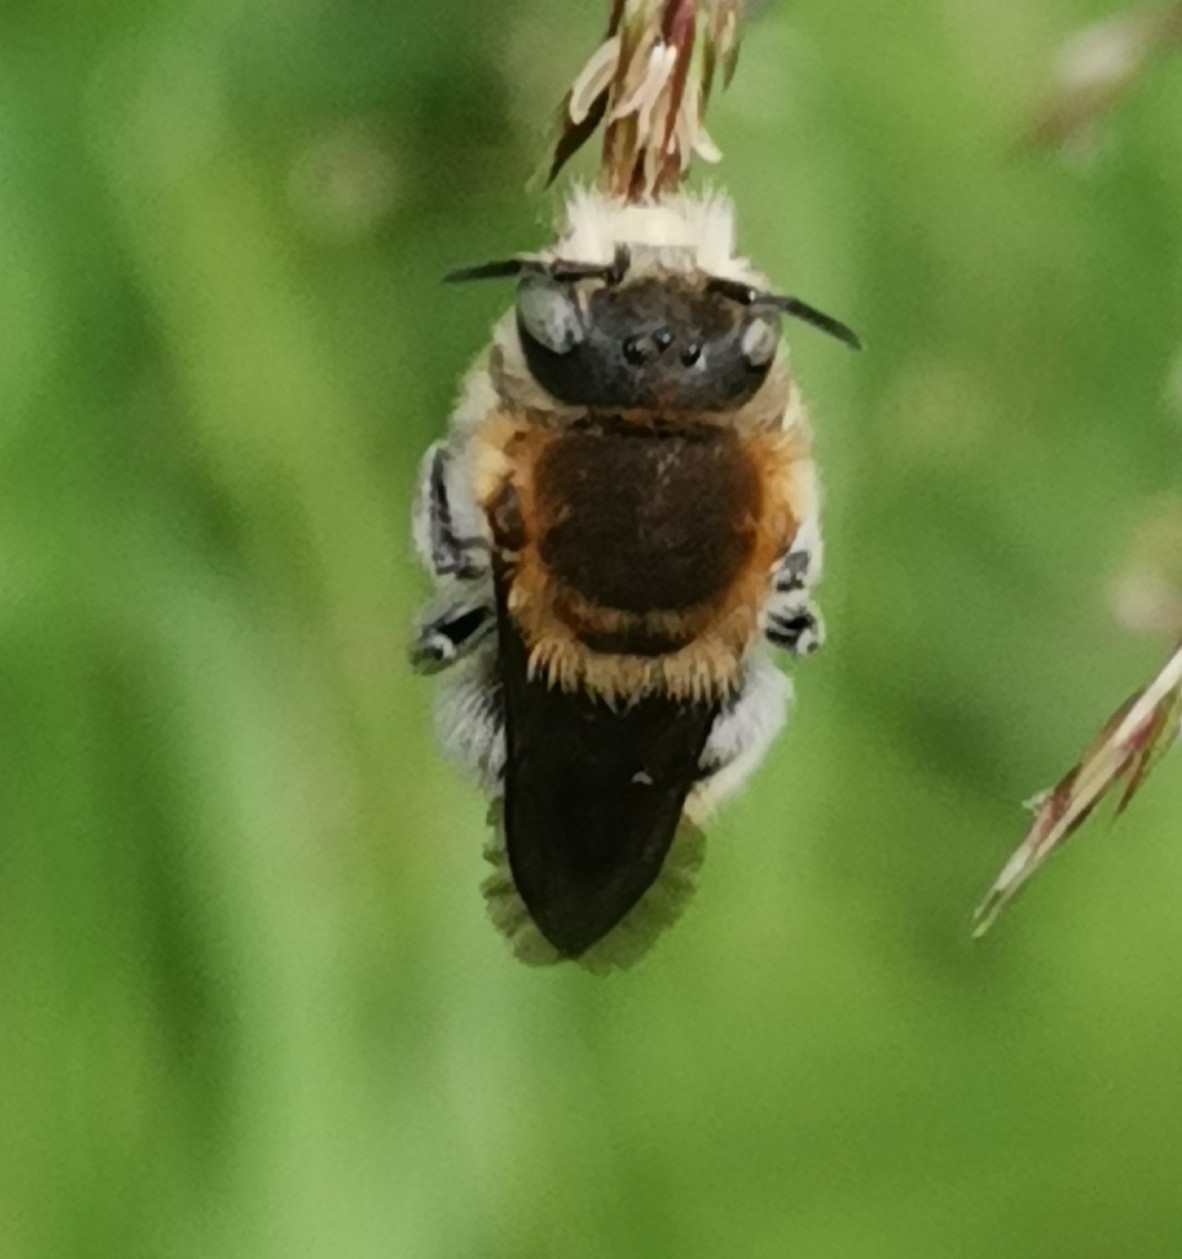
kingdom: Animalia
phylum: Arthropoda
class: Insecta
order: Hymenoptera
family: Megachilidae
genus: Trachusa
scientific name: Trachusa byssina
